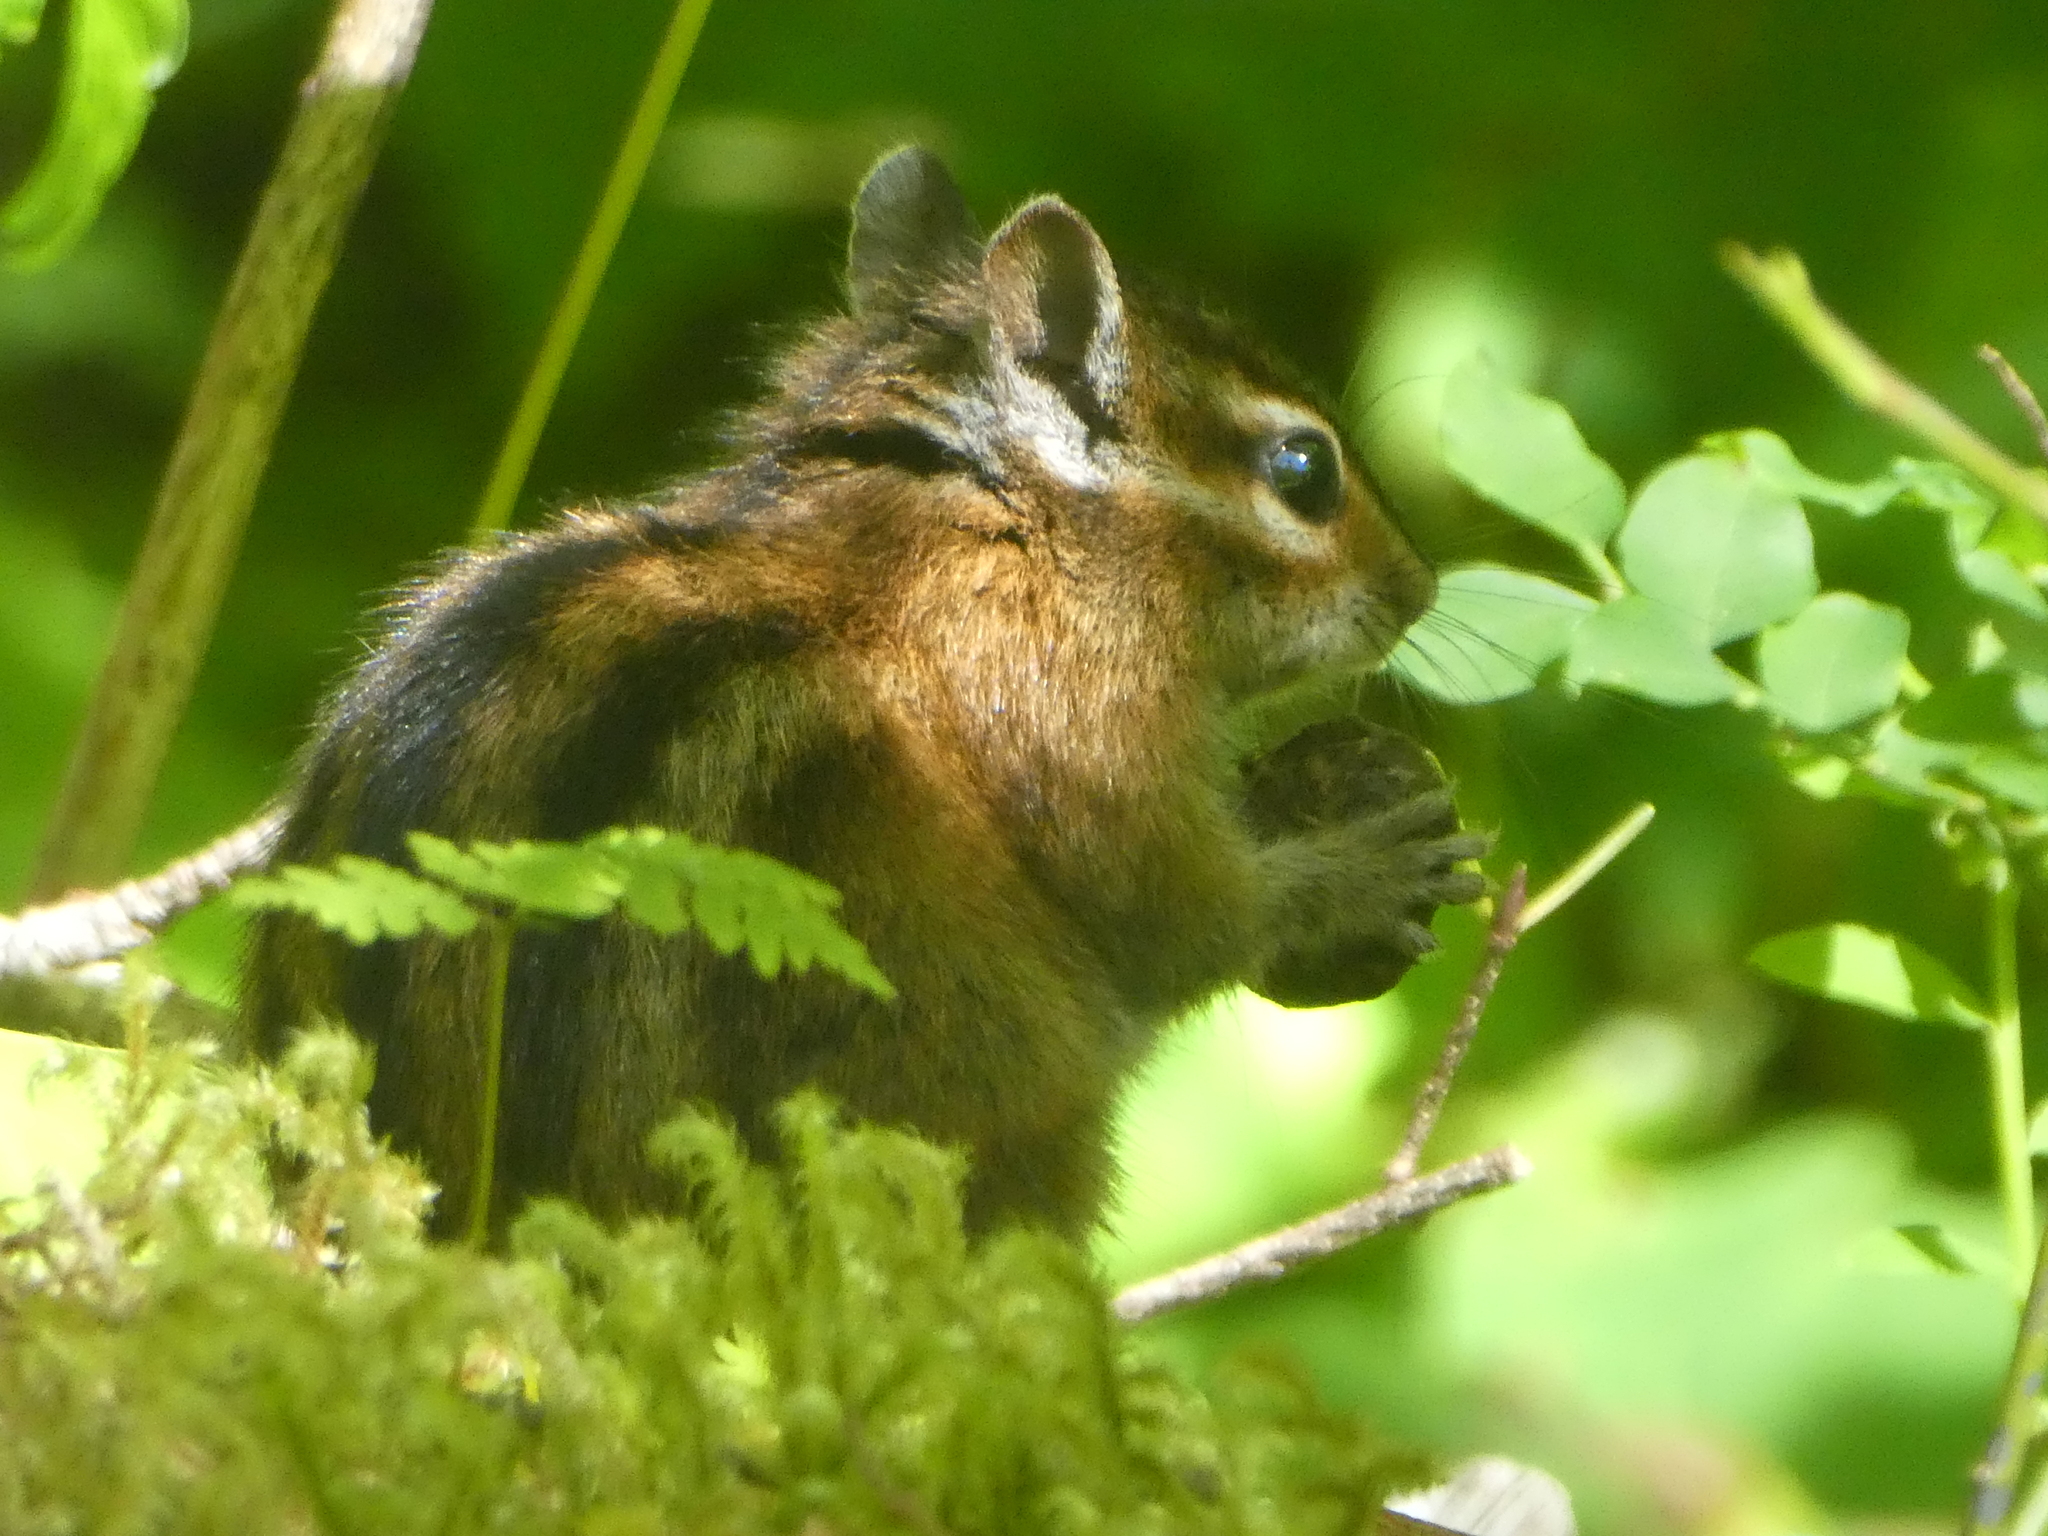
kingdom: Animalia
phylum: Chordata
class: Mammalia
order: Rodentia
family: Sciuridae
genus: Tamias
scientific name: Tamias townsendii
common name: Townsend's chipmunk
